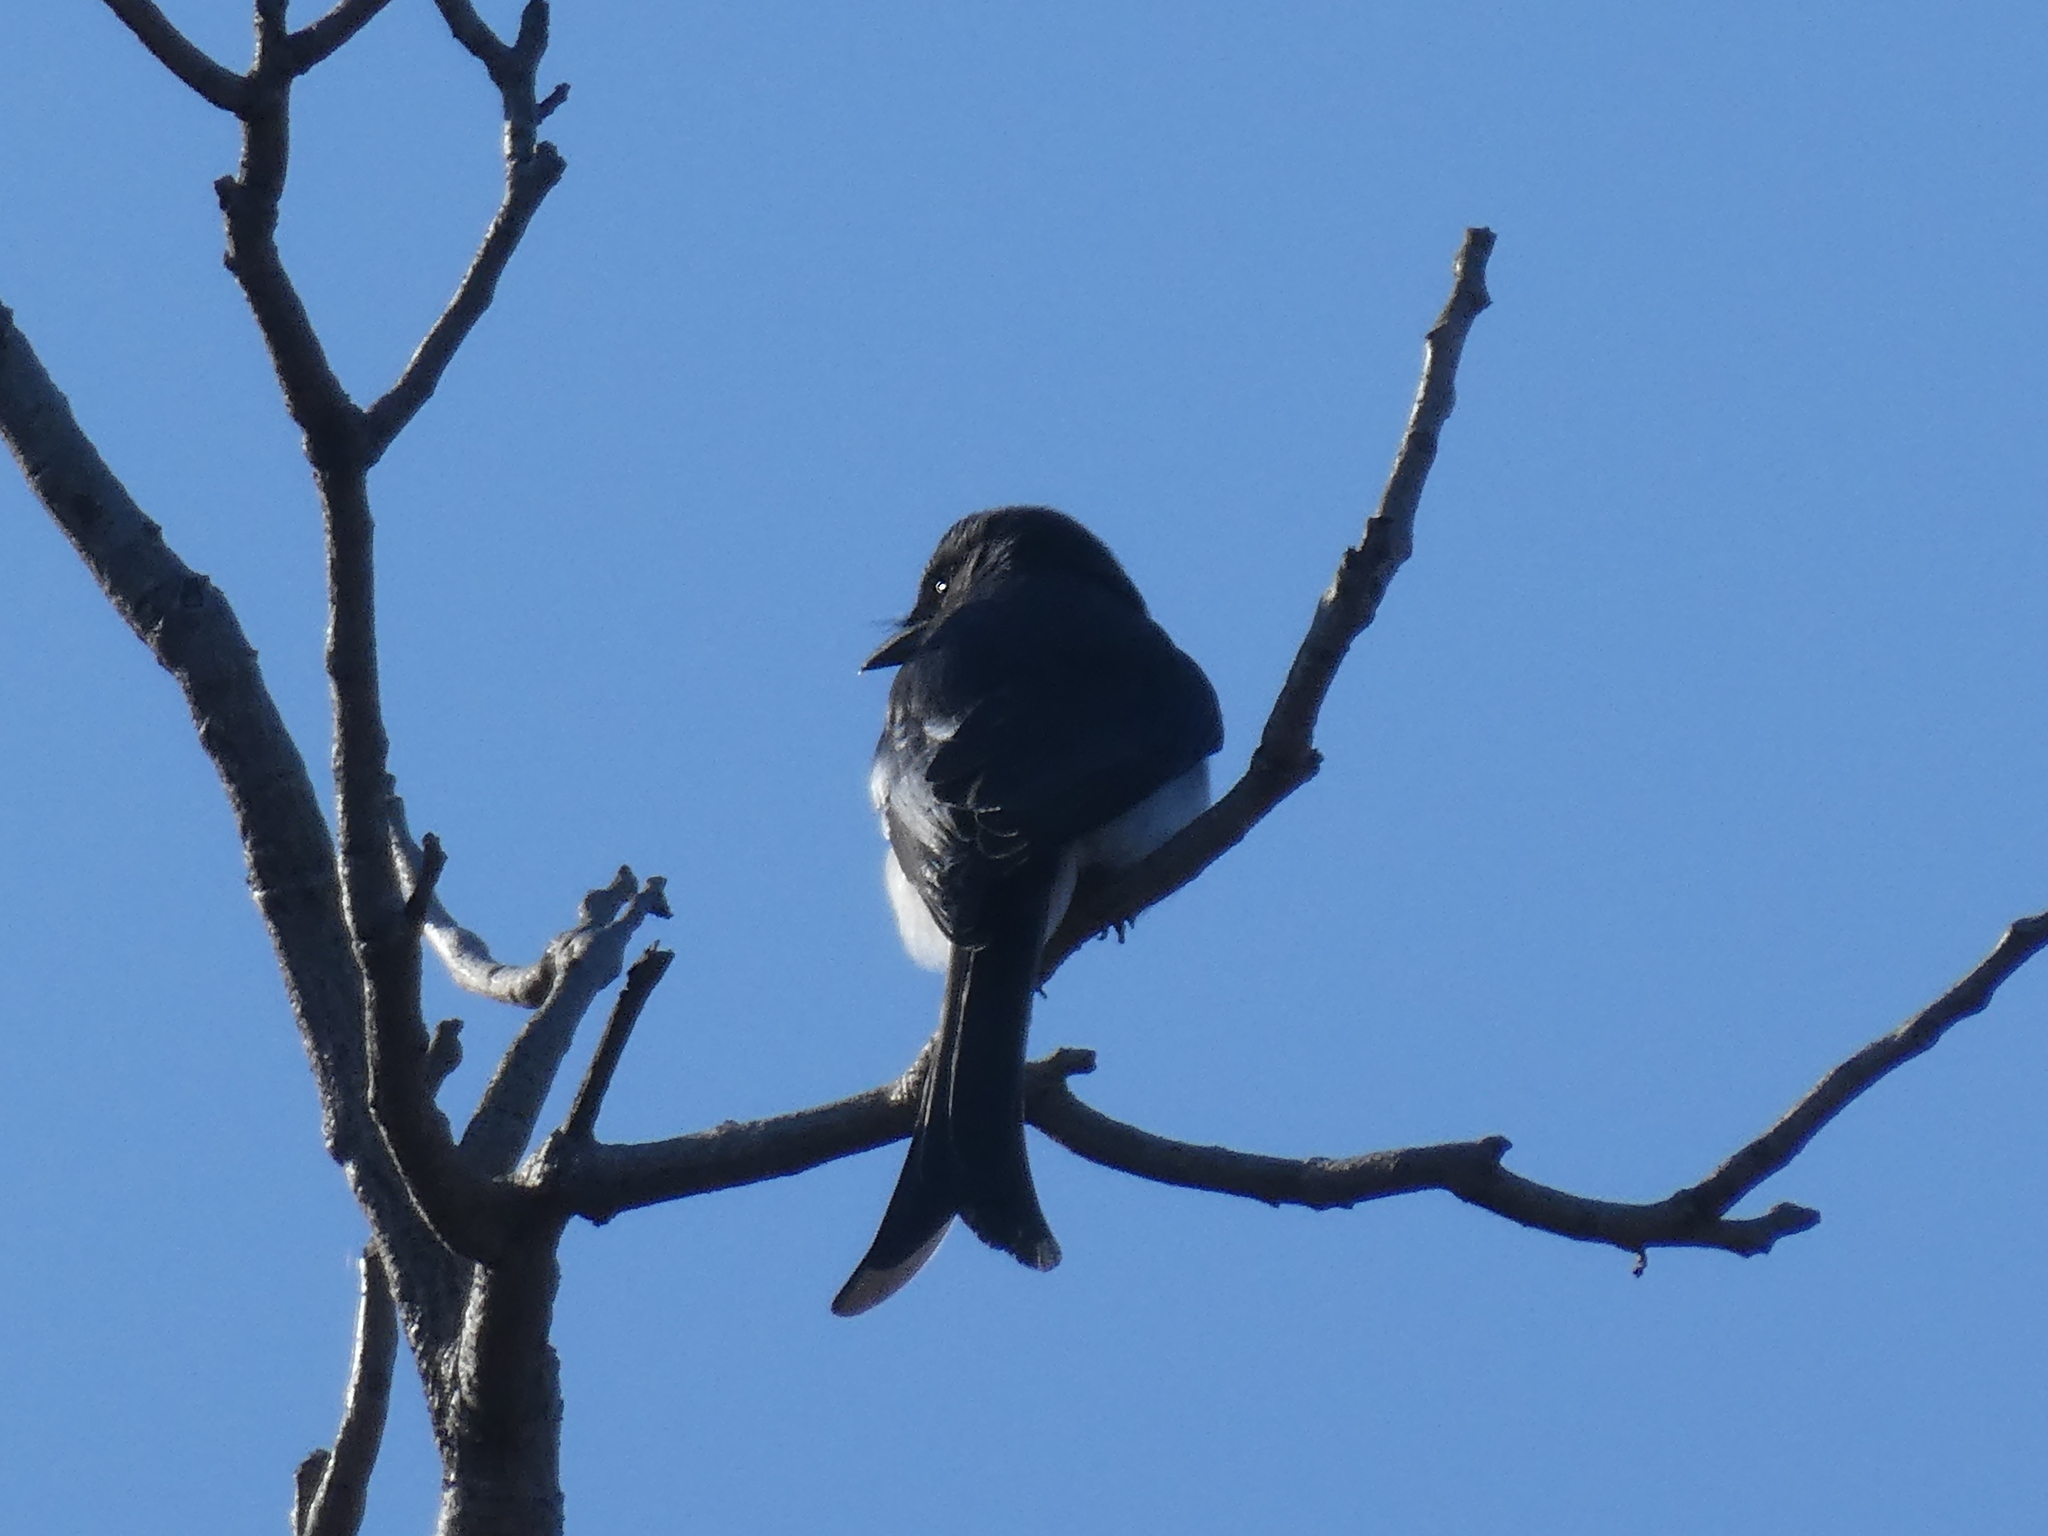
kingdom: Animalia
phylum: Chordata
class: Aves
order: Passeriformes
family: Dicruridae
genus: Dicrurus
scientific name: Dicrurus caerulescens
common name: White-bellied drongo
